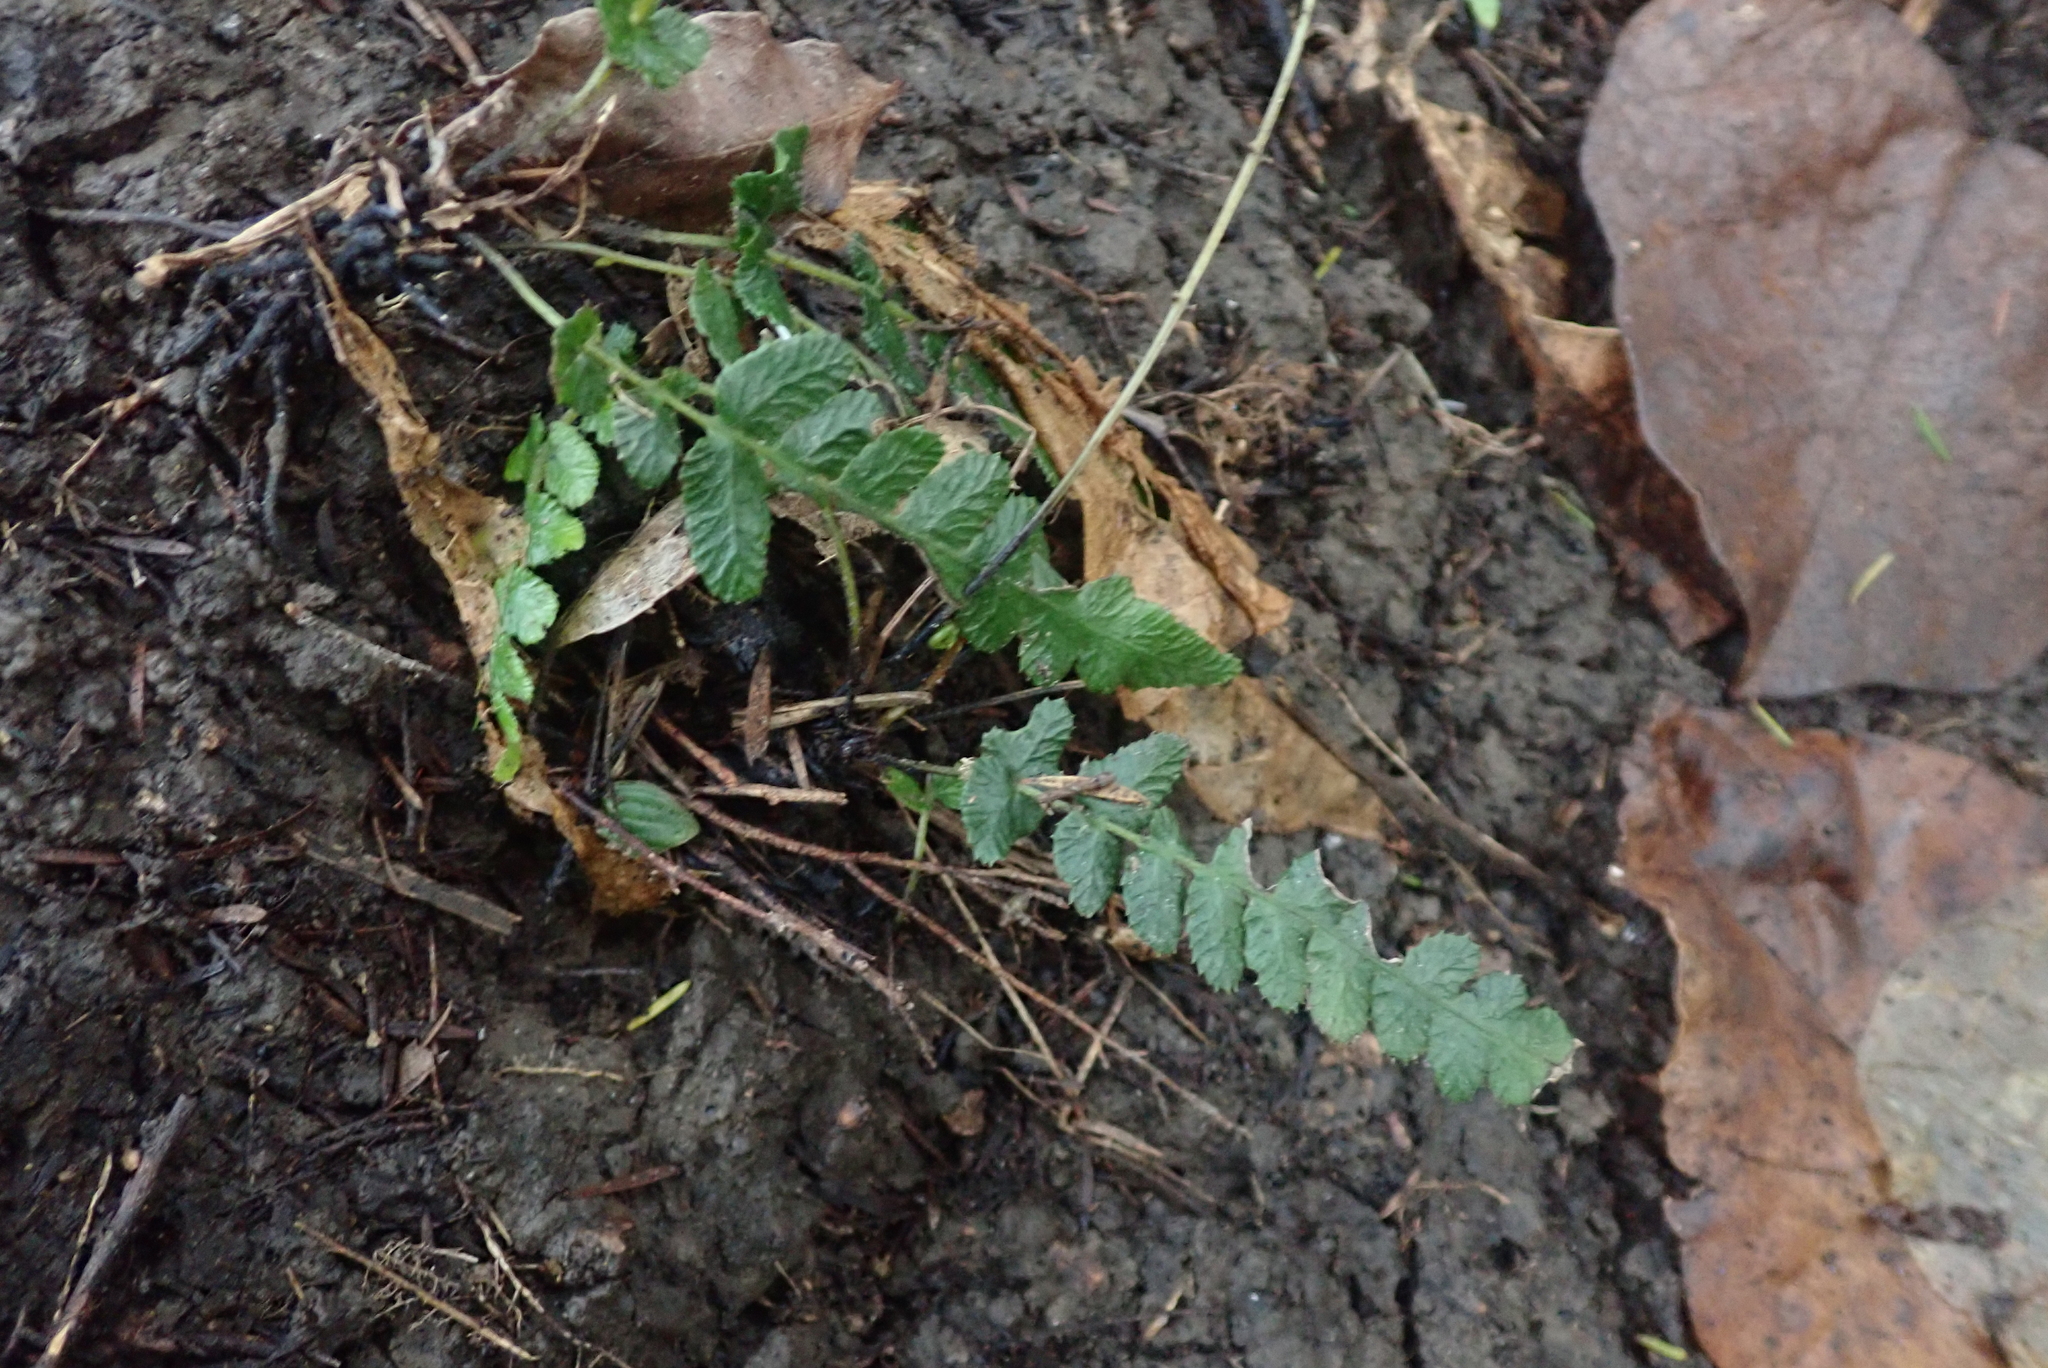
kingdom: Plantae
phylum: Tracheophyta
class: Polypodiopsida
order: Polypodiales
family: Blechnaceae
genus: Doodia
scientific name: Doodia australis
